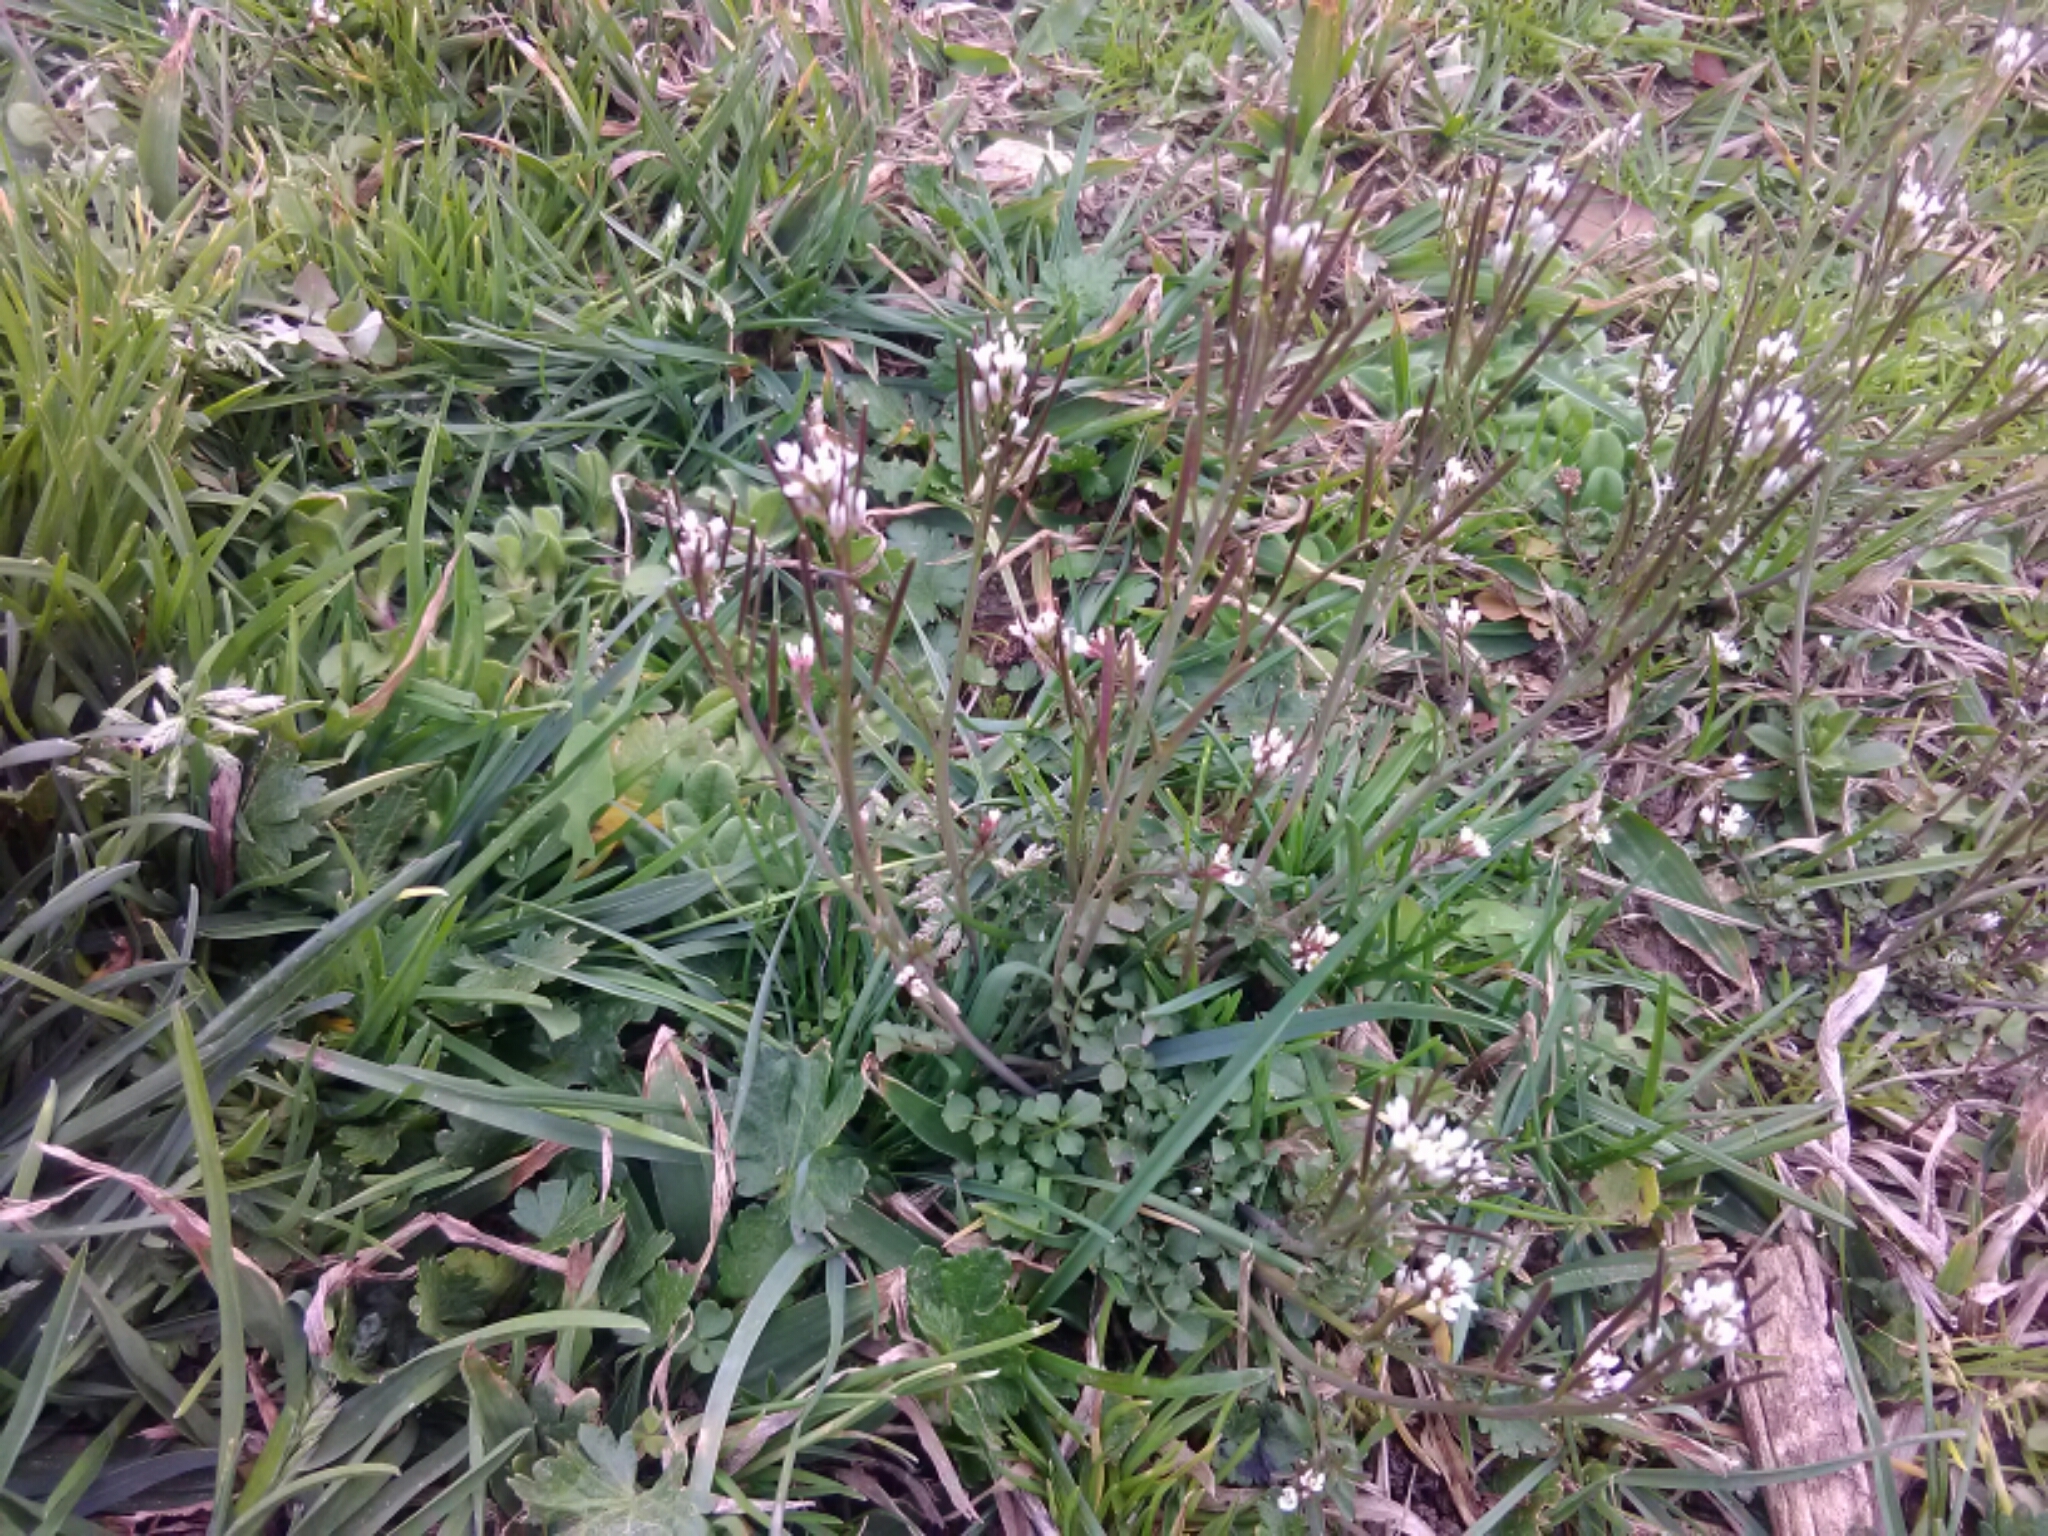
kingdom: Plantae
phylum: Tracheophyta
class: Magnoliopsida
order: Brassicales
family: Brassicaceae
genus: Cardamine
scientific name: Cardamine hirsuta
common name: Hairy bittercress
